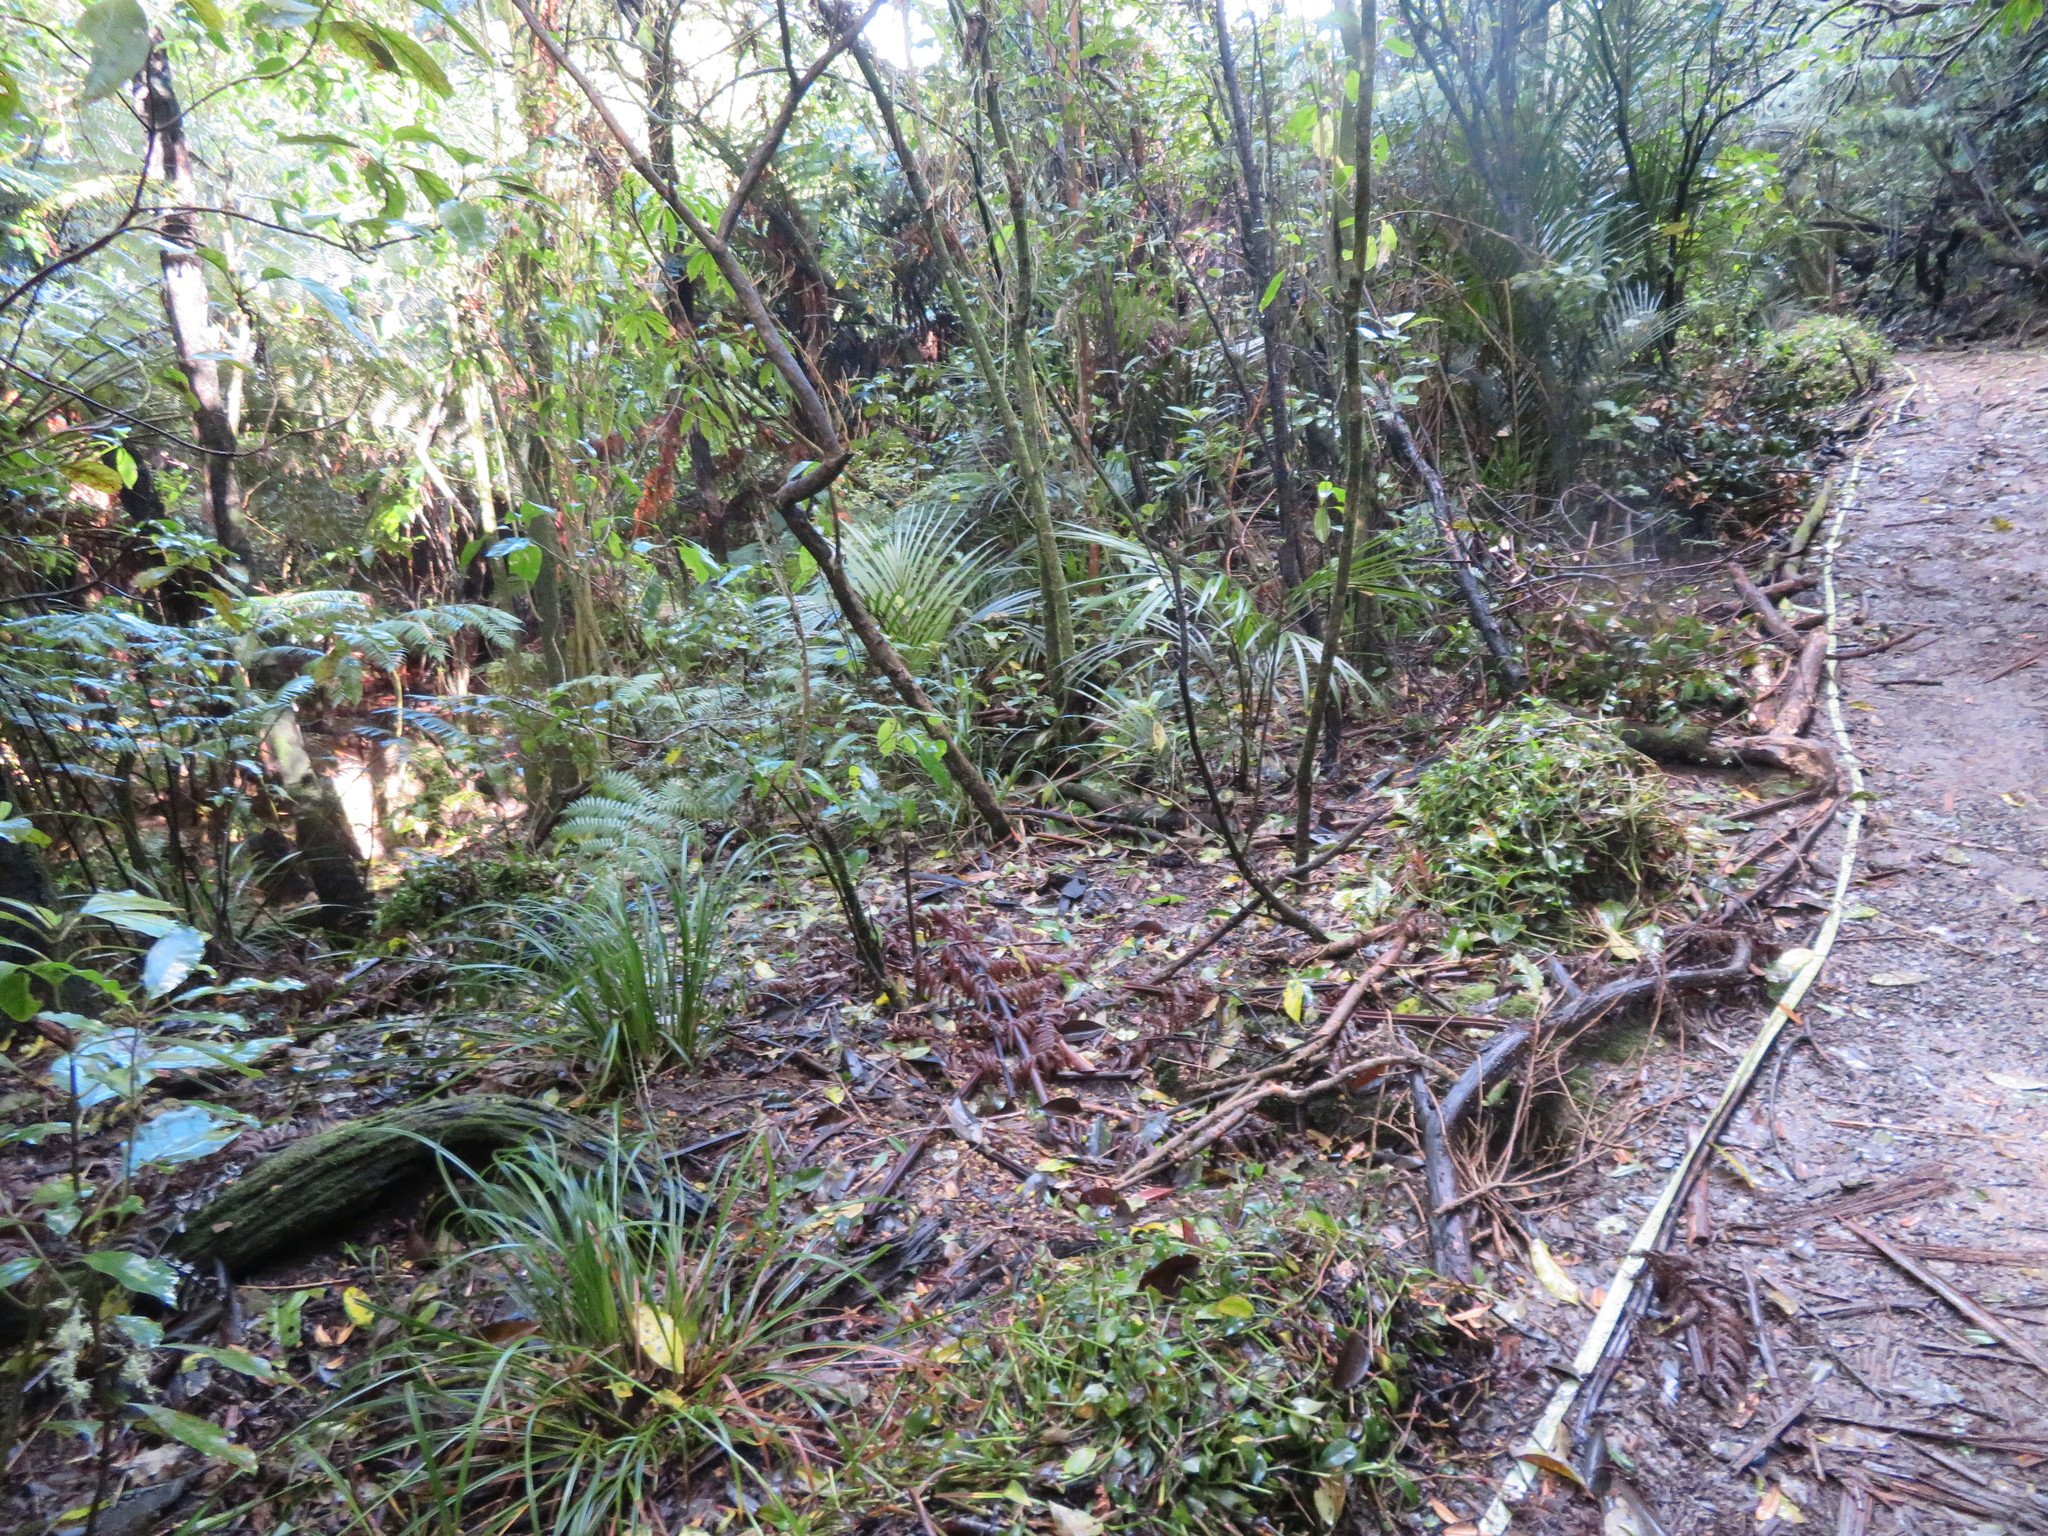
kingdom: Plantae
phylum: Tracheophyta
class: Liliopsida
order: Commelinales
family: Commelinaceae
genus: Tradescantia
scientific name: Tradescantia fluminensis
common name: Wandering-jew
